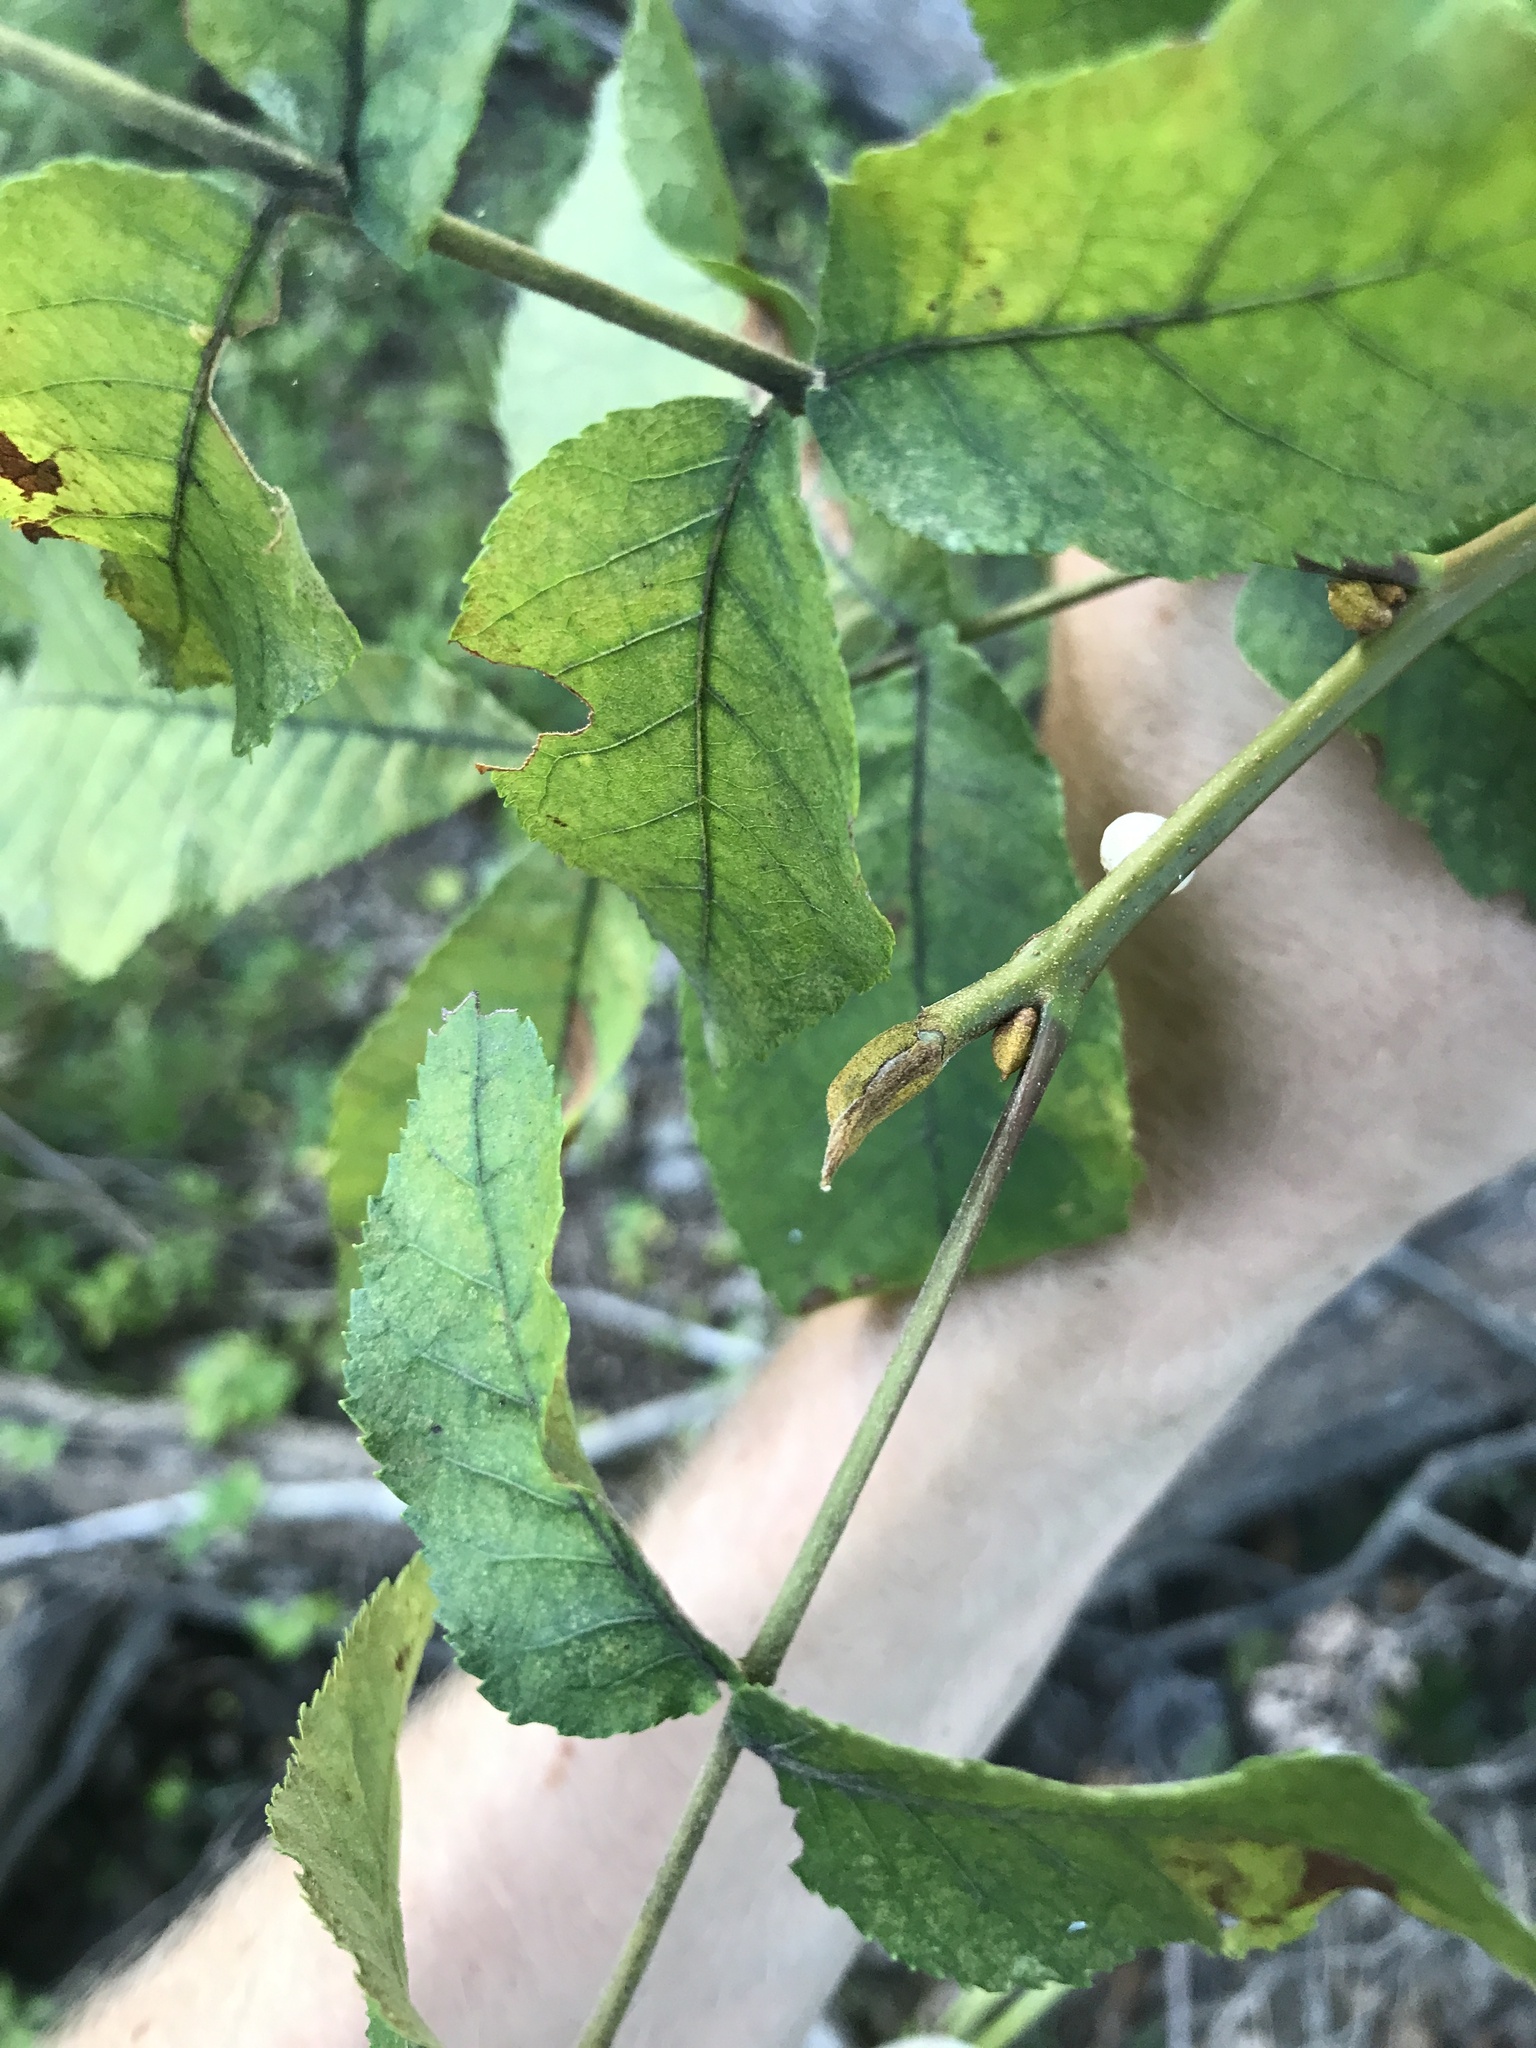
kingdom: Plantae
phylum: Tracheophyta
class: Magnoliopsida
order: Fagales
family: Juglandaceae
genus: Carya
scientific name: Carya cordiformis
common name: Bitternut hickory
